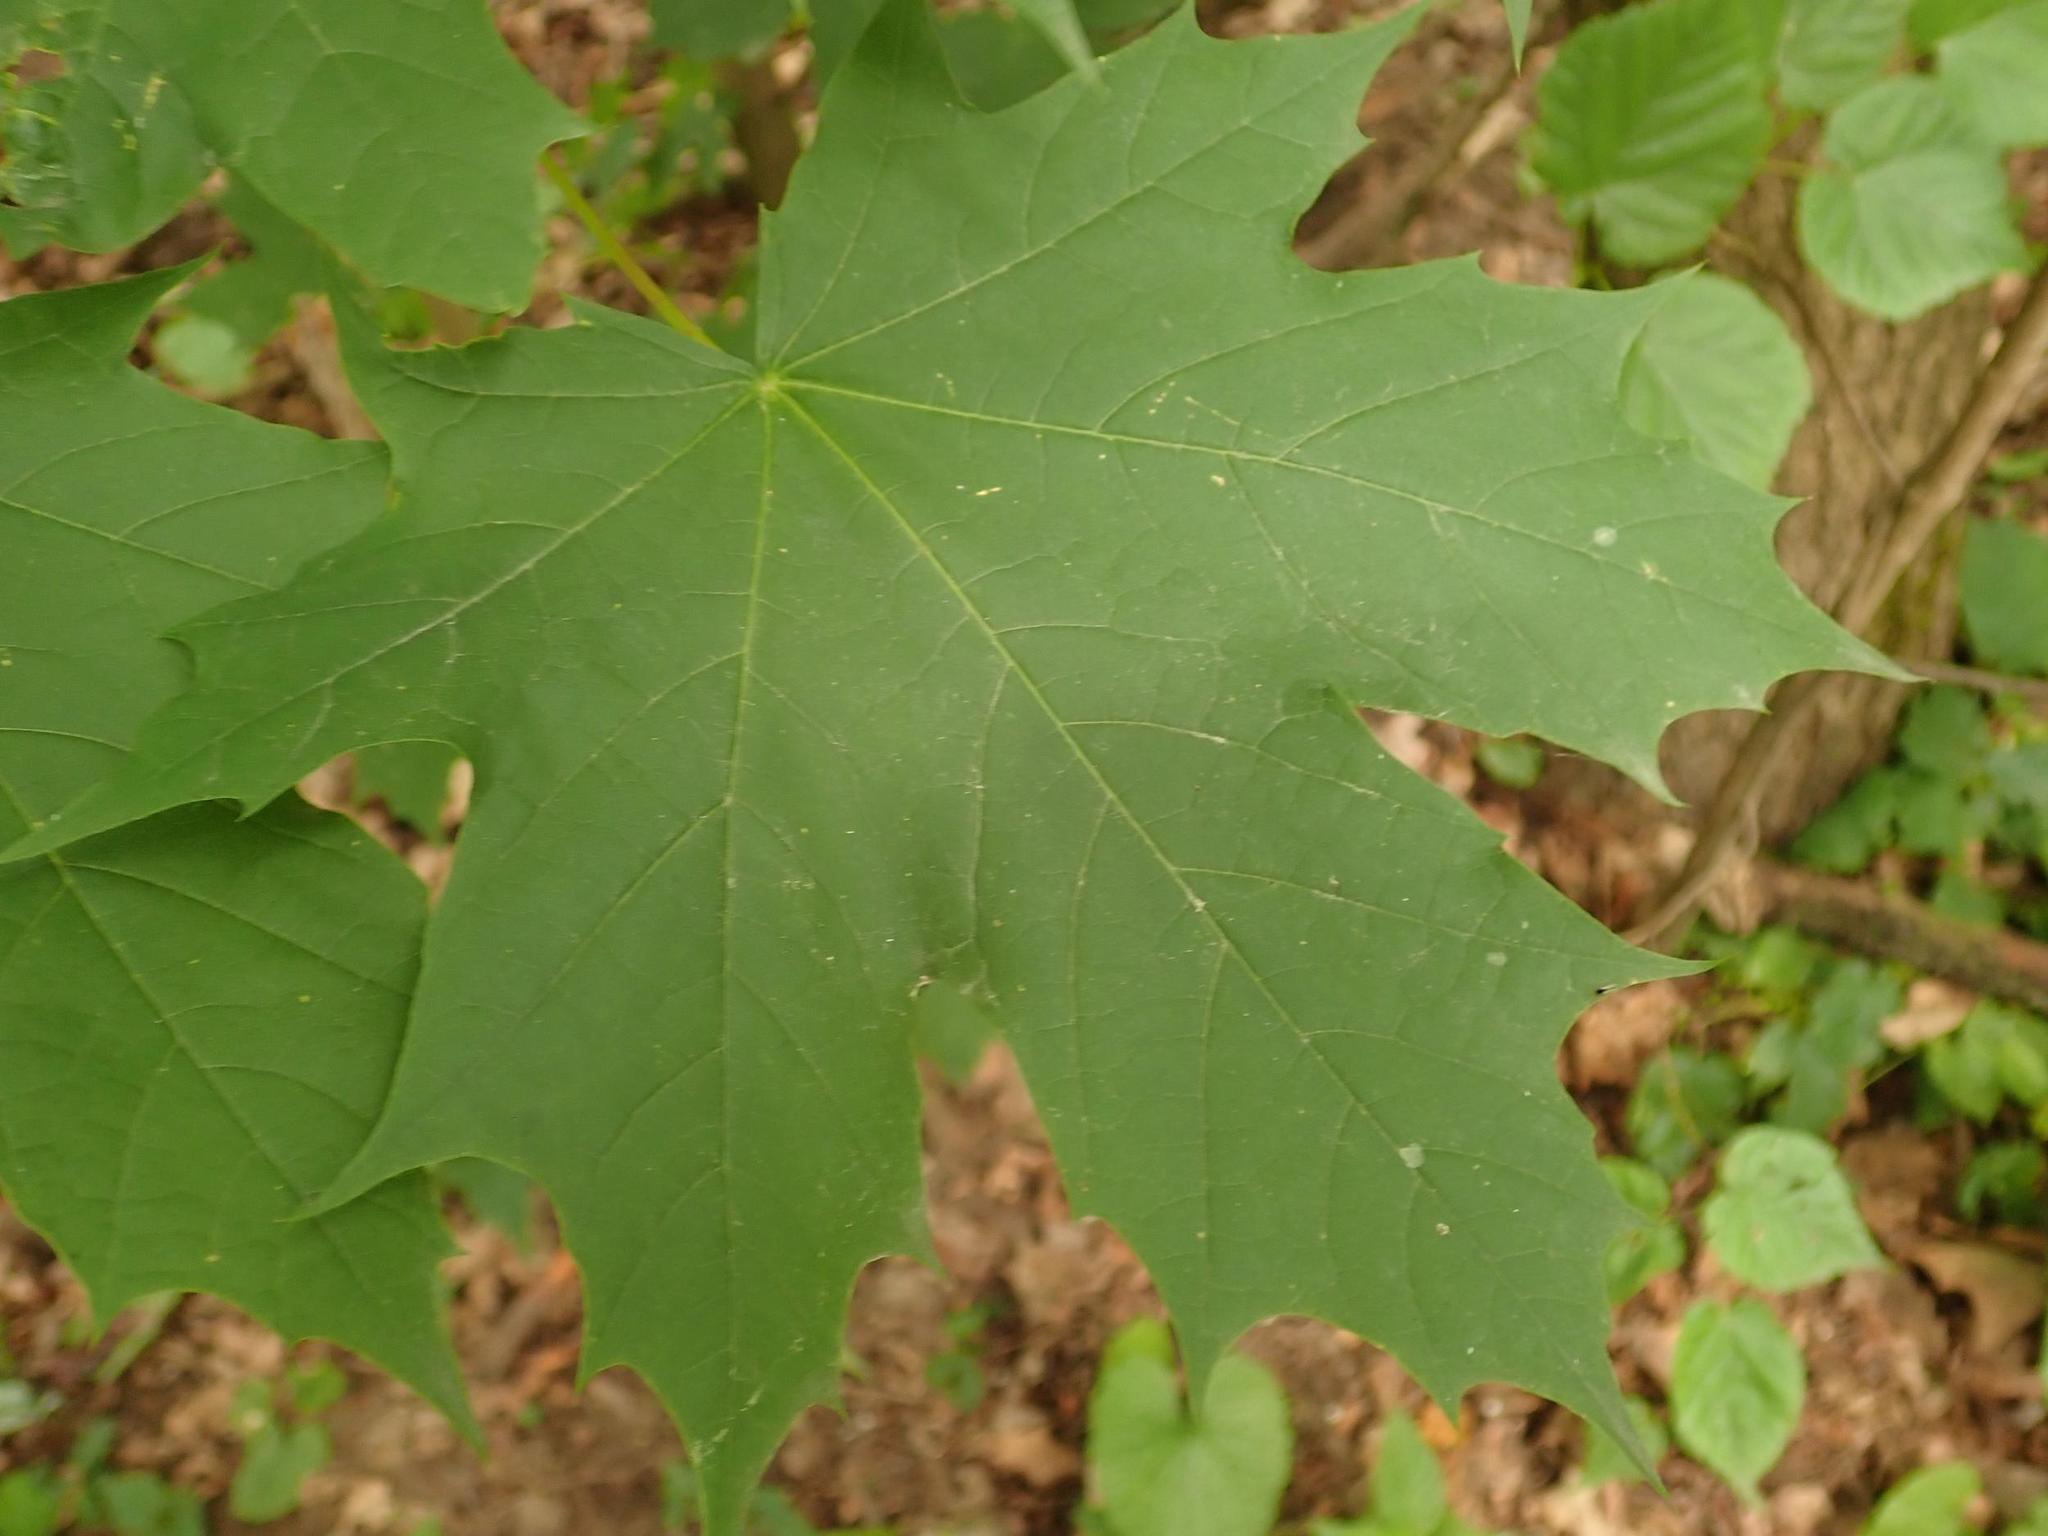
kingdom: Plantae
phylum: Tracheophyta
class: Magnoliopsida
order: Sapindales
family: Sapindaceae
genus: Acer
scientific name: Acer platanoides
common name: Norway maple
